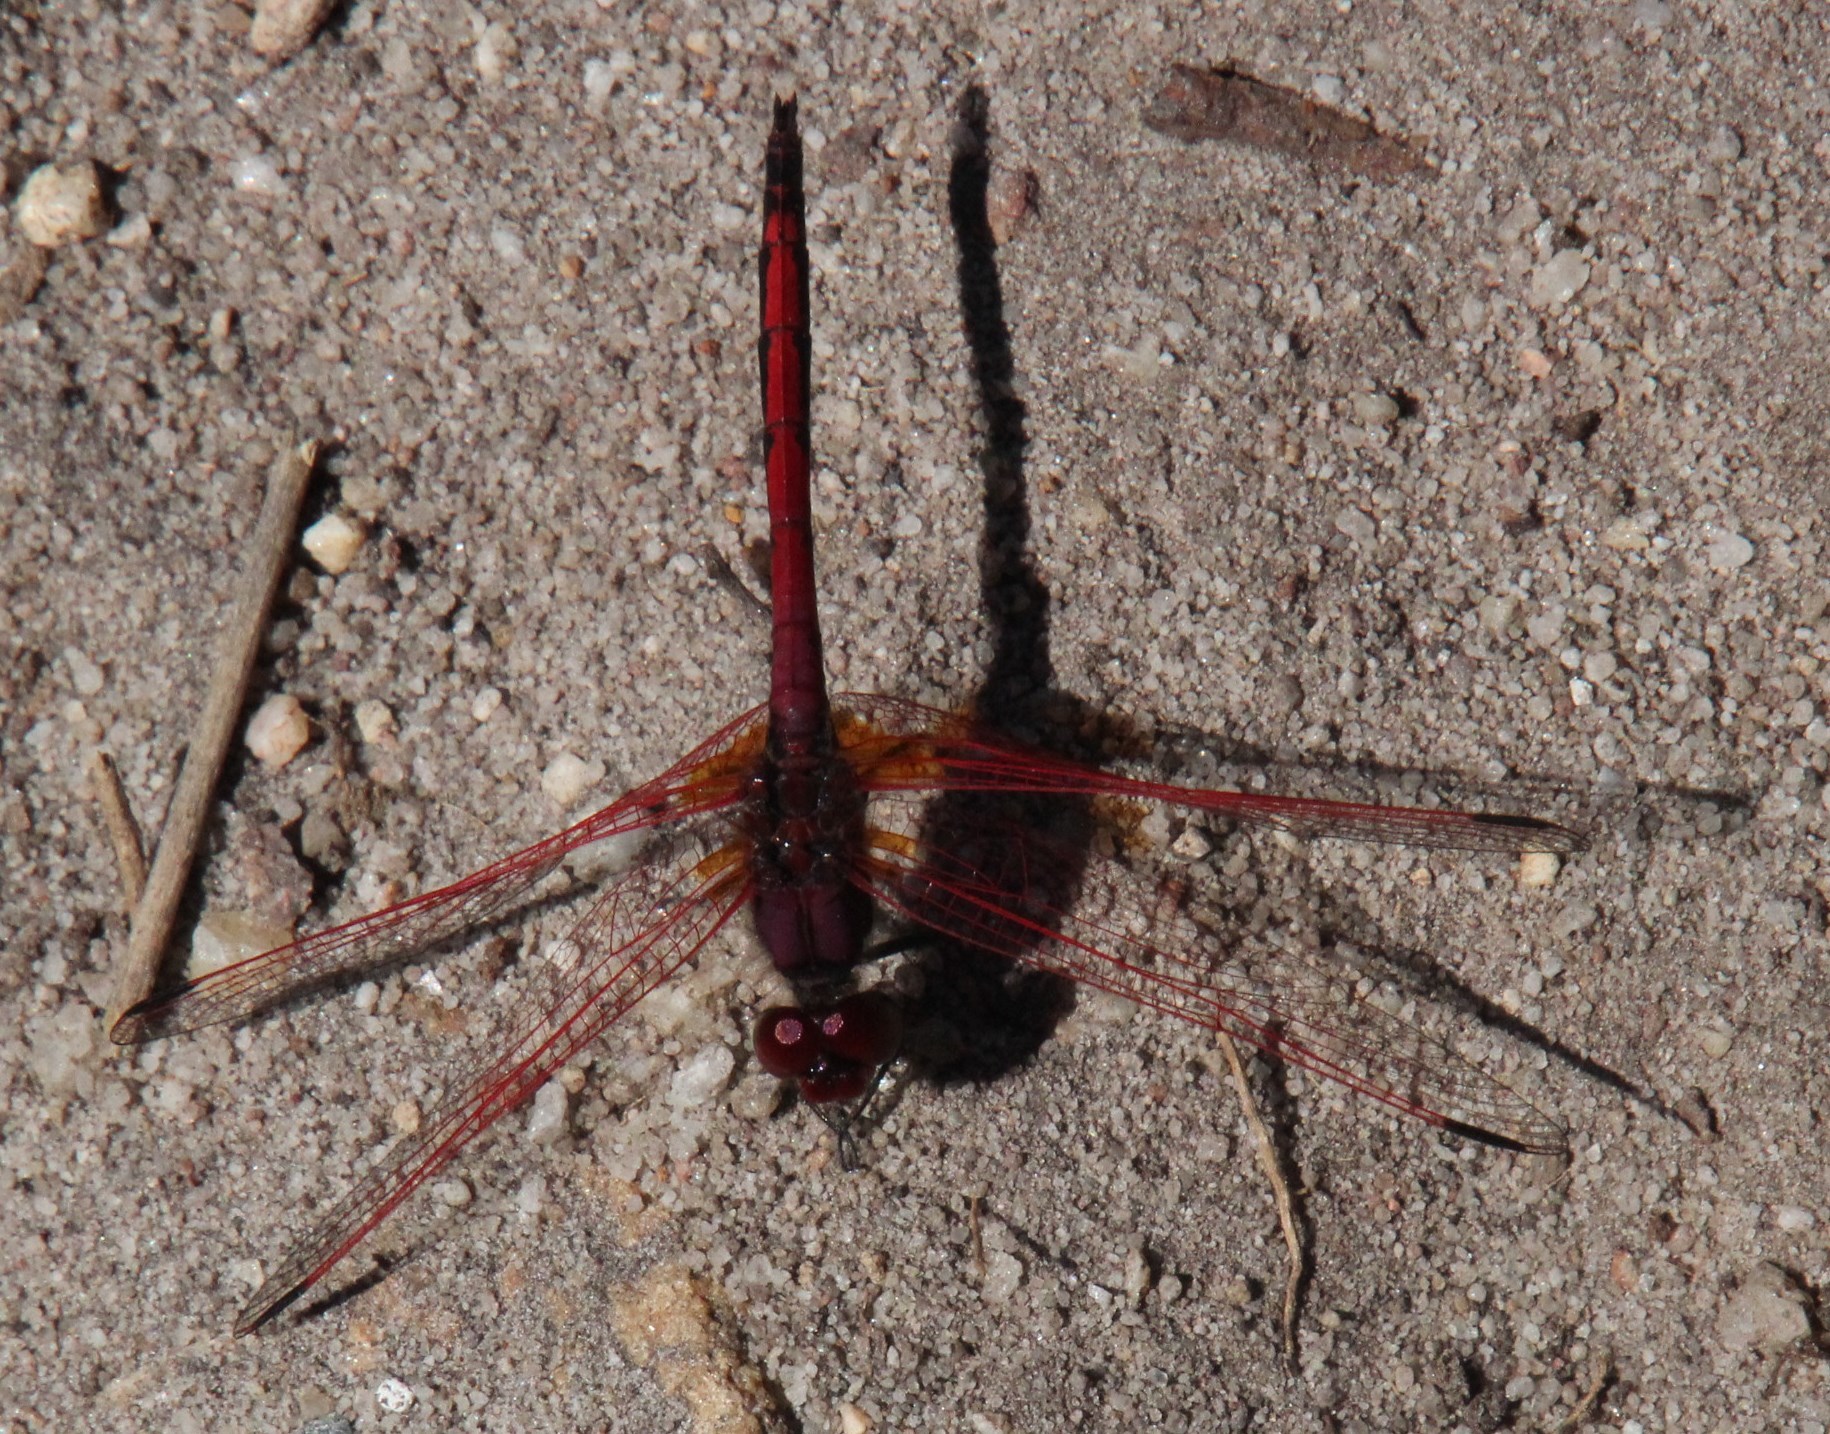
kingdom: Animalia
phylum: Arthropoda
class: Insecta
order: Odonata
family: Libellulidae
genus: Trithemis
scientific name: Trithemis arteriosa
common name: Red-veined dropwing
